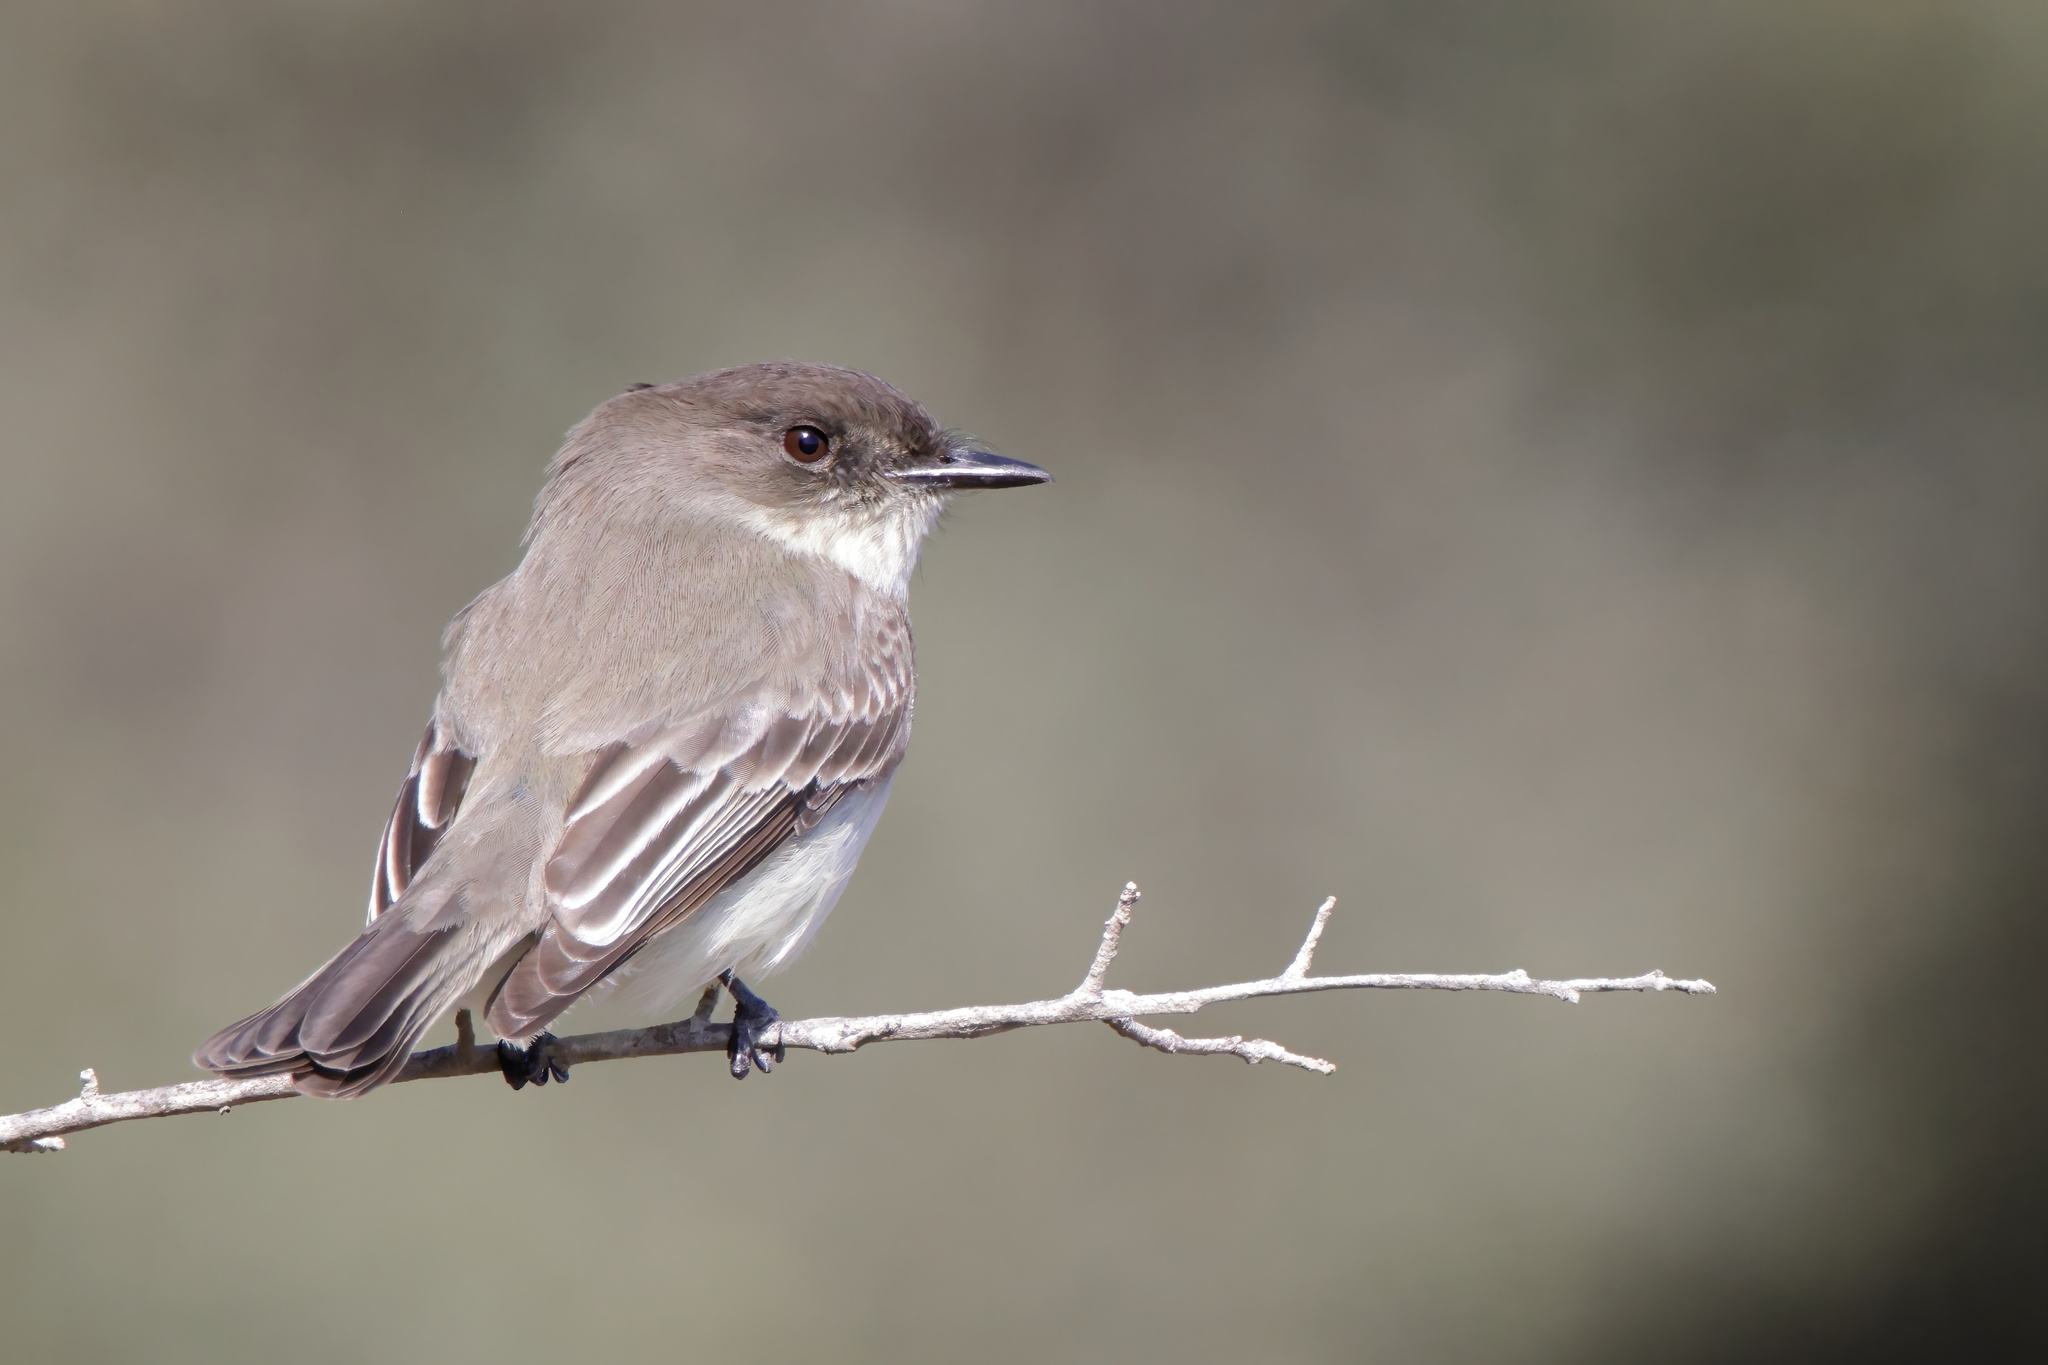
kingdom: Animalia
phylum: Chordata
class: Aves
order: Passeriformes
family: Tyrannidae
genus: Sayornis
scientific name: Sayornis phoebe
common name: Eastern phoebe
